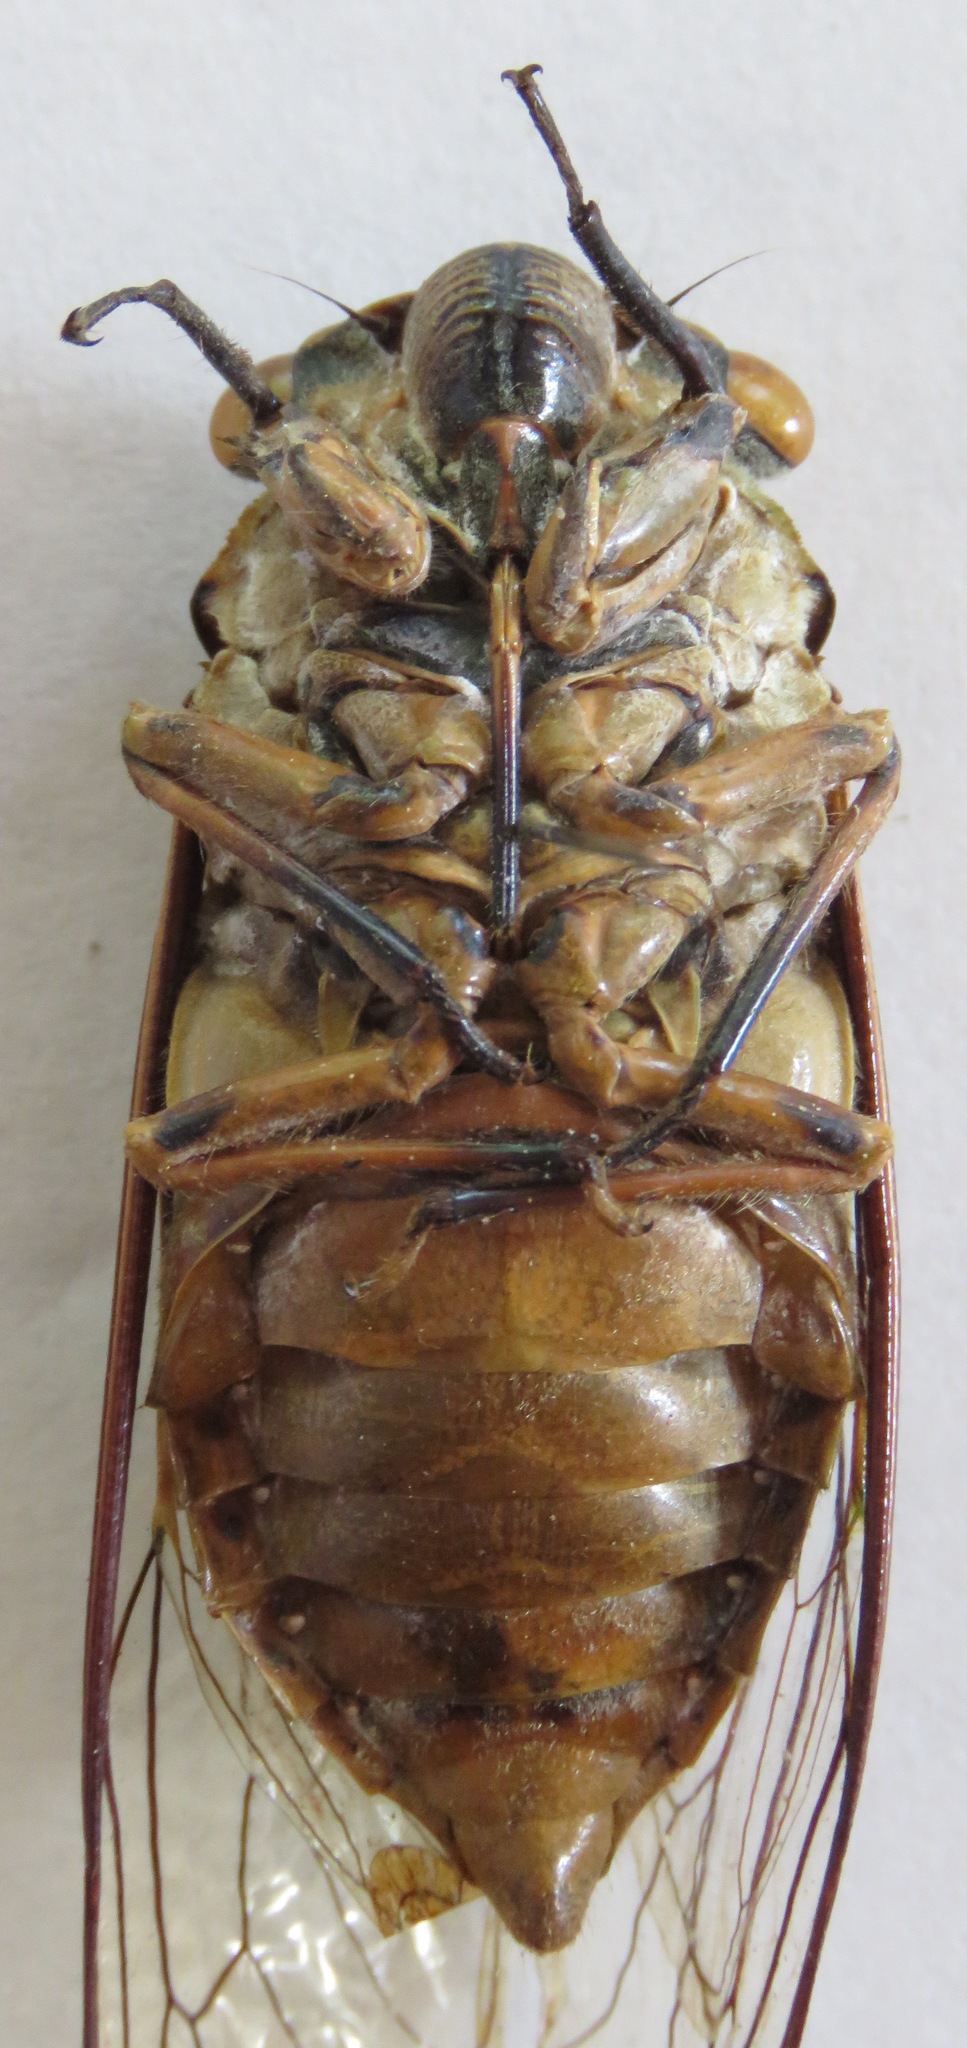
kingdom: Animalia
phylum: Arthropoda
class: Insecta
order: Hemiptera
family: Cicadidae
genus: Quesada
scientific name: Quesada gigas
